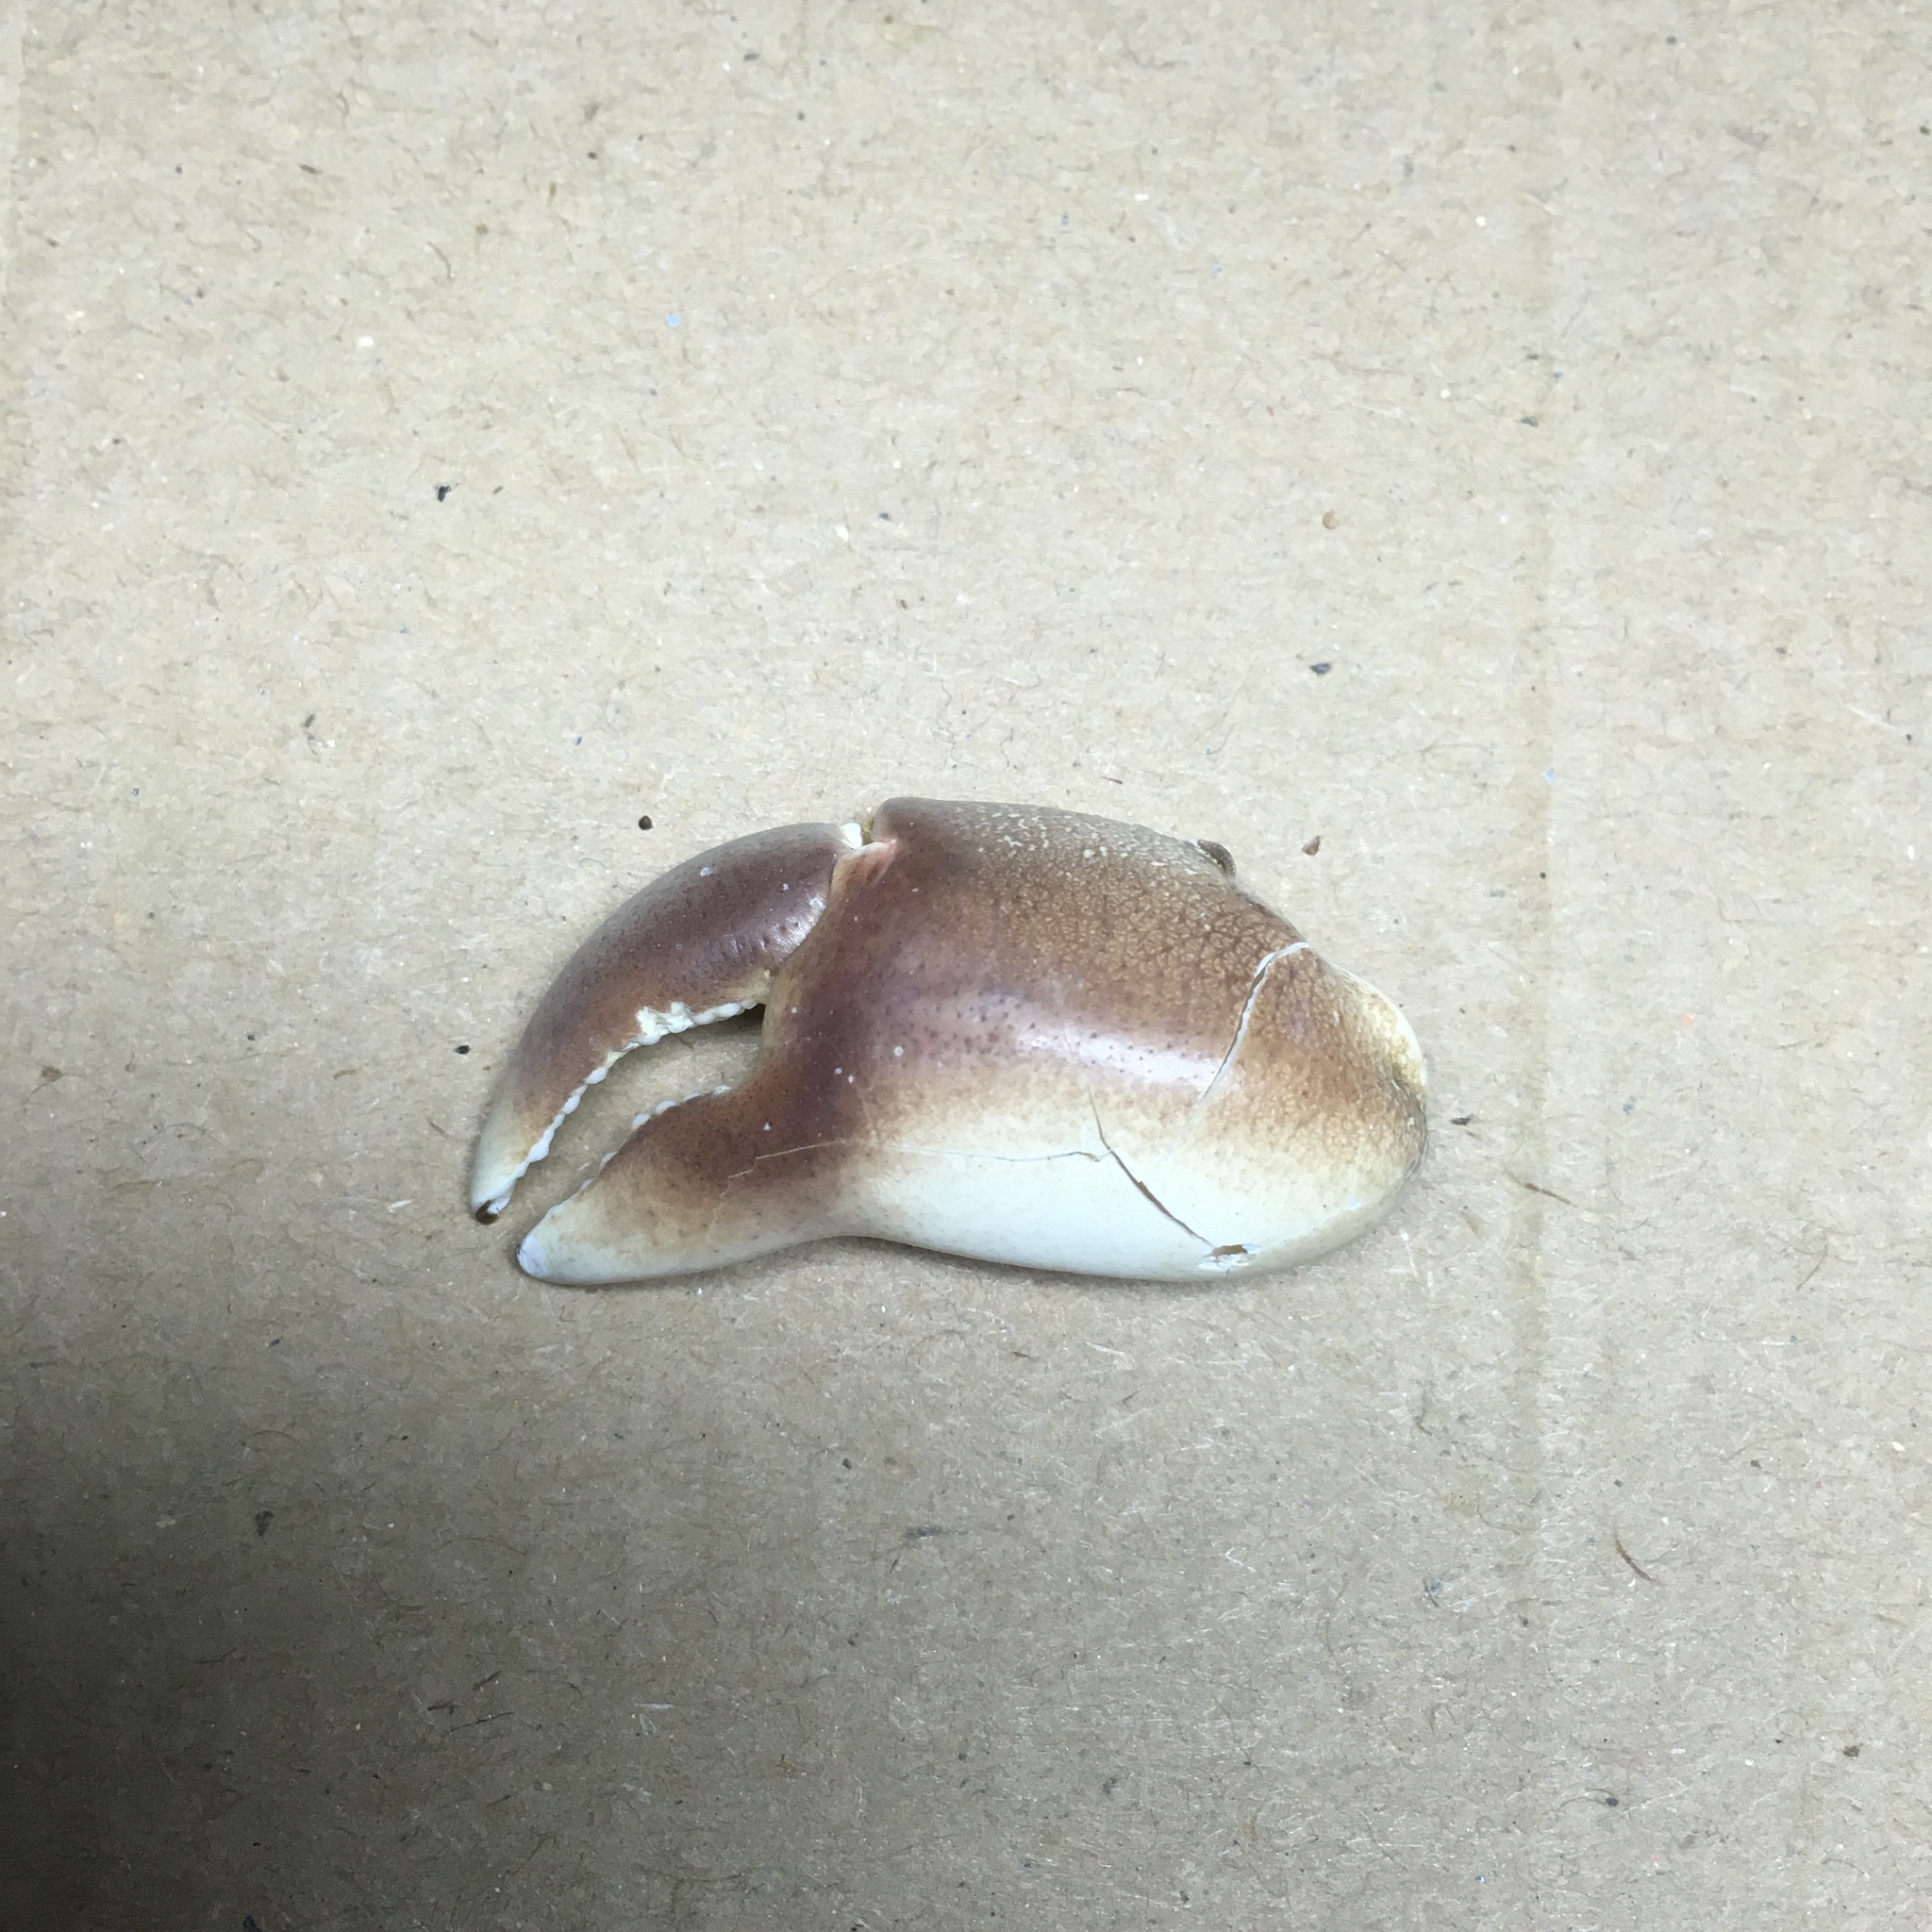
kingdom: Animalia
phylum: Arthropoda
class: Malacostraca
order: Decapoda
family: Grapsidae
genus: Pachygrapsus
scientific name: Pachygrapsus marmoratus
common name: Marbled rock crab
